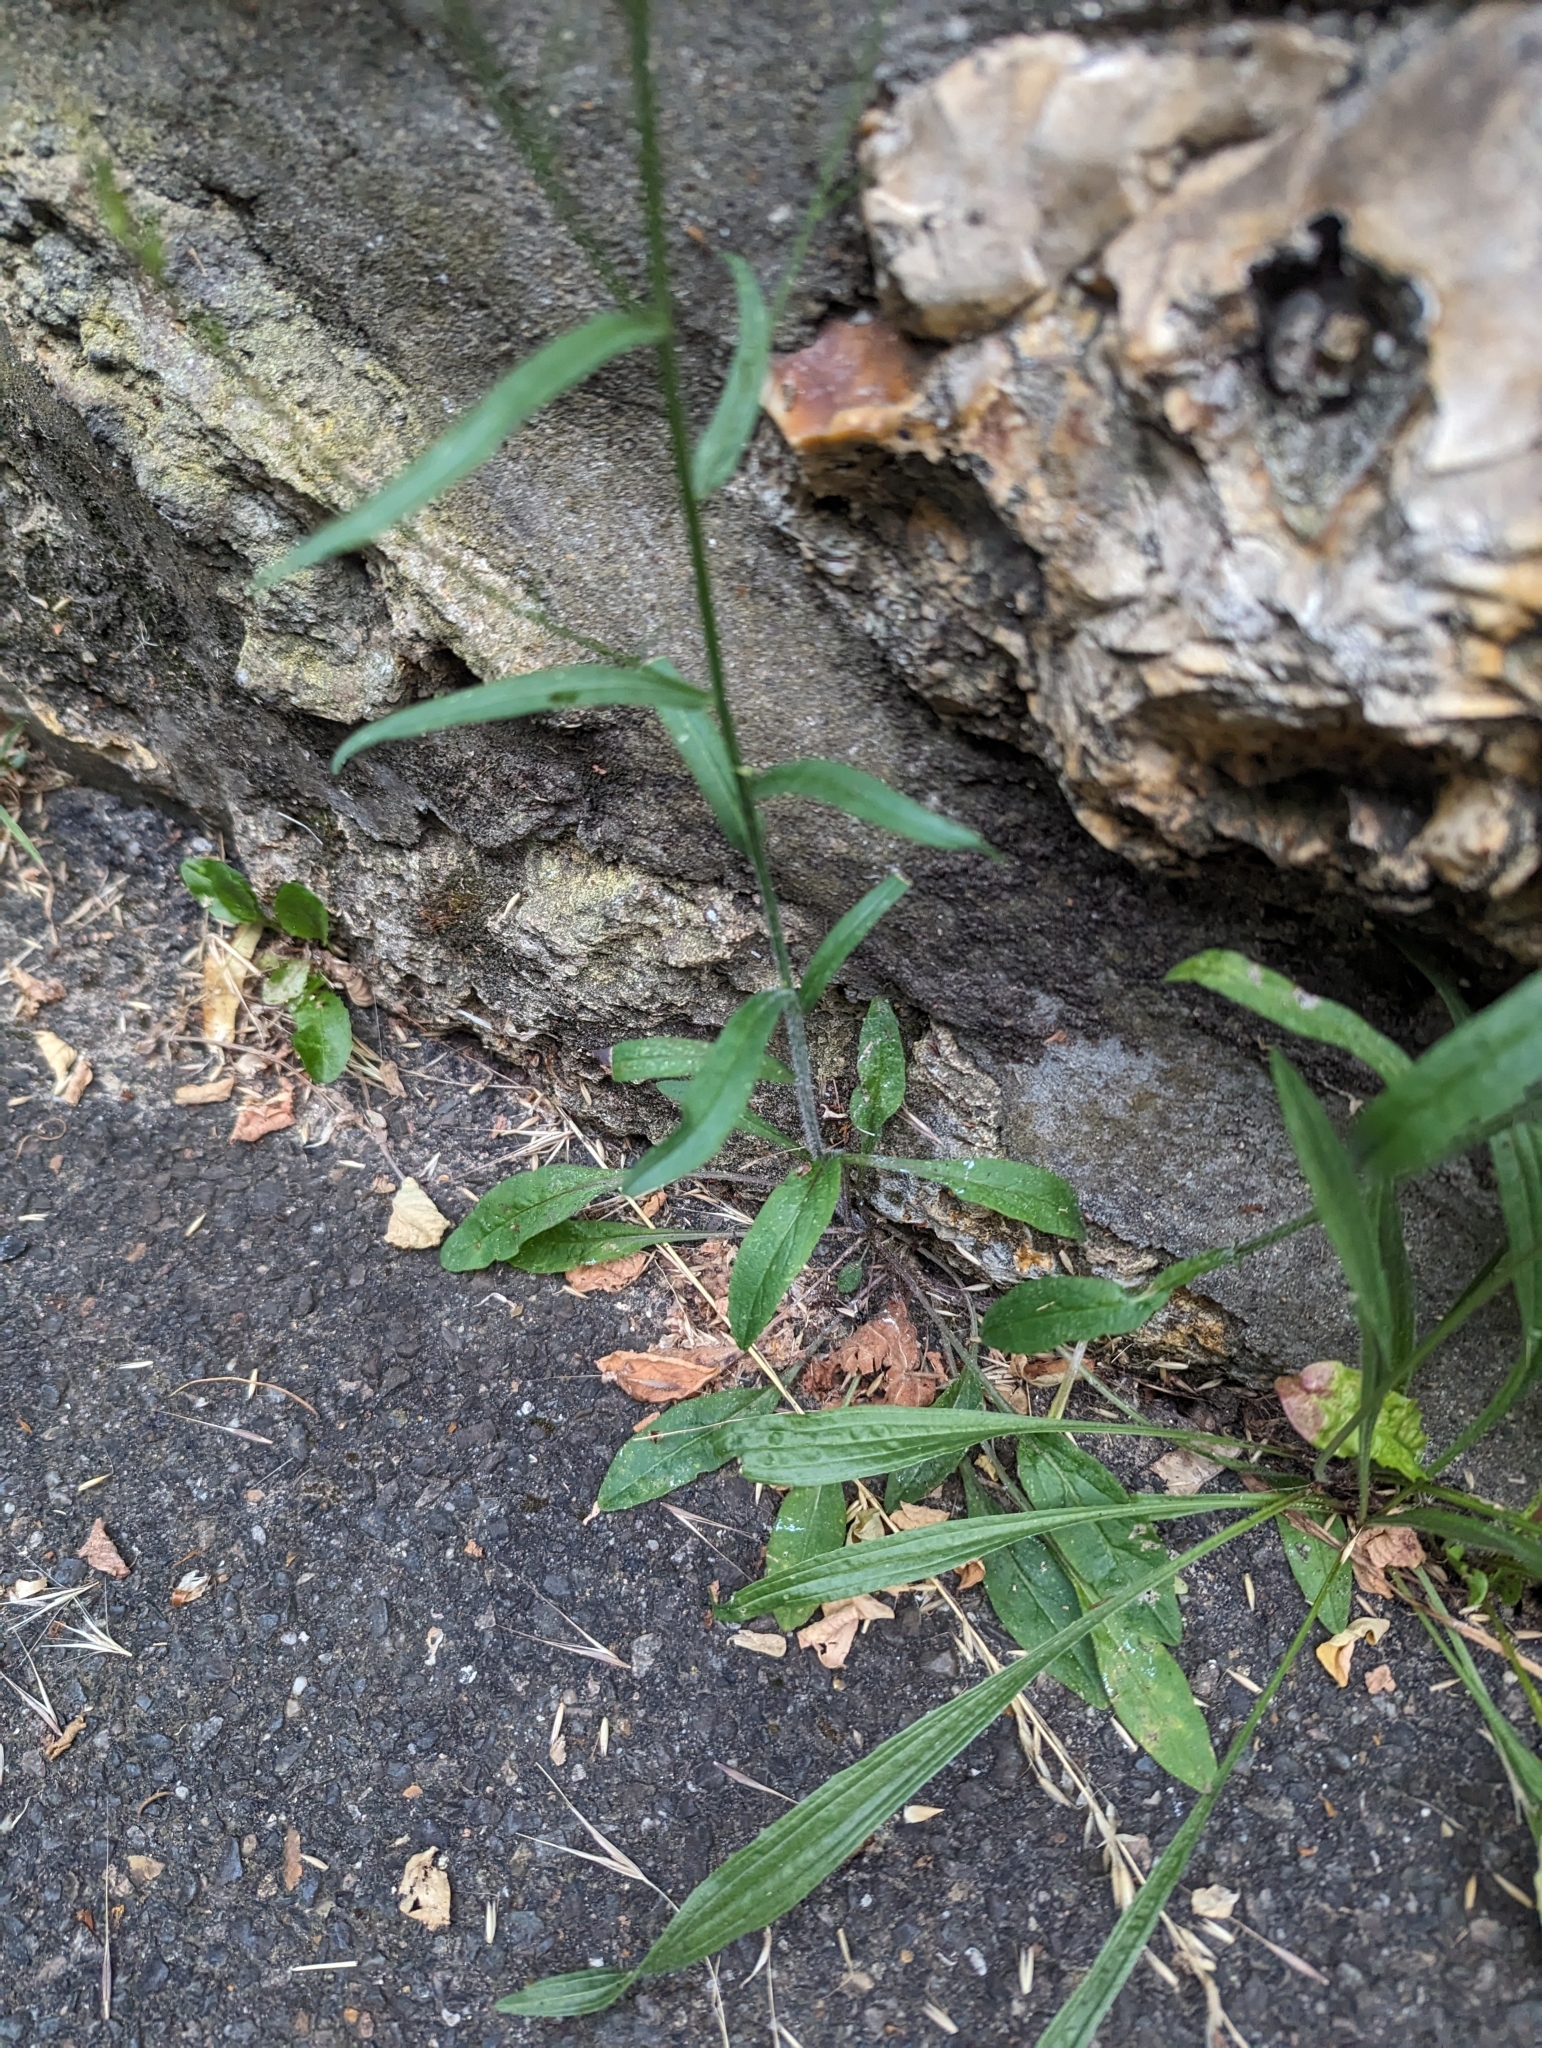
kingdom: Plantae
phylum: Tracheophyta
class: Magnoliopsida
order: Asterales
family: Campanulaceae
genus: Campanula
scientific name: Campanula rapunculus
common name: Rampion bellflower
